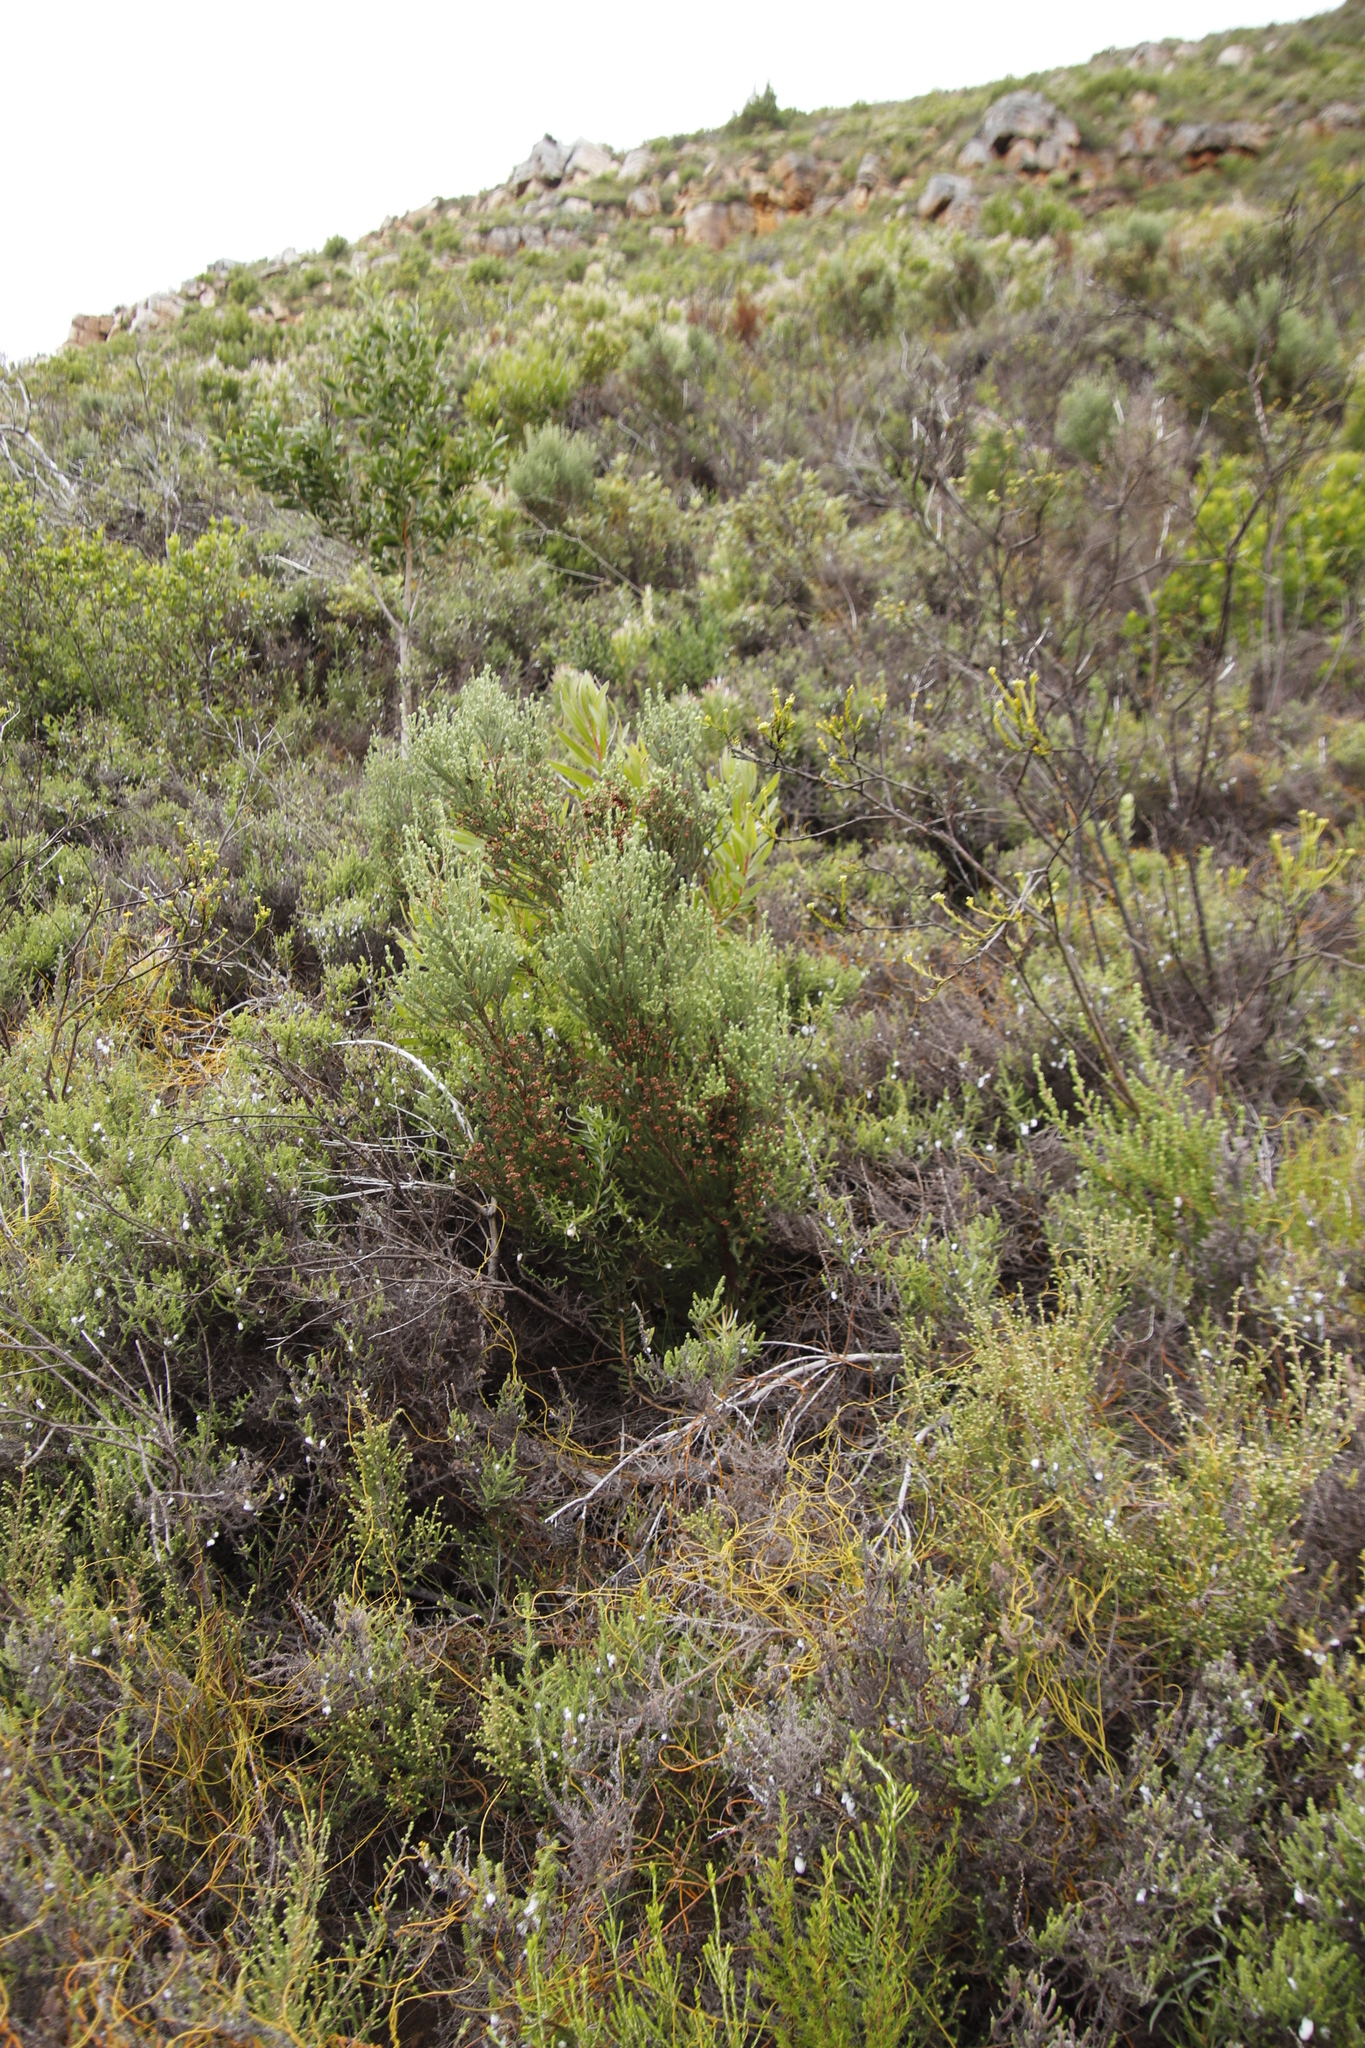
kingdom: Plantae
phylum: Tracheophyta
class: Magnoliopsida
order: Ericales
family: Ericaceae
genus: Erica
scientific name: Erica baccans
